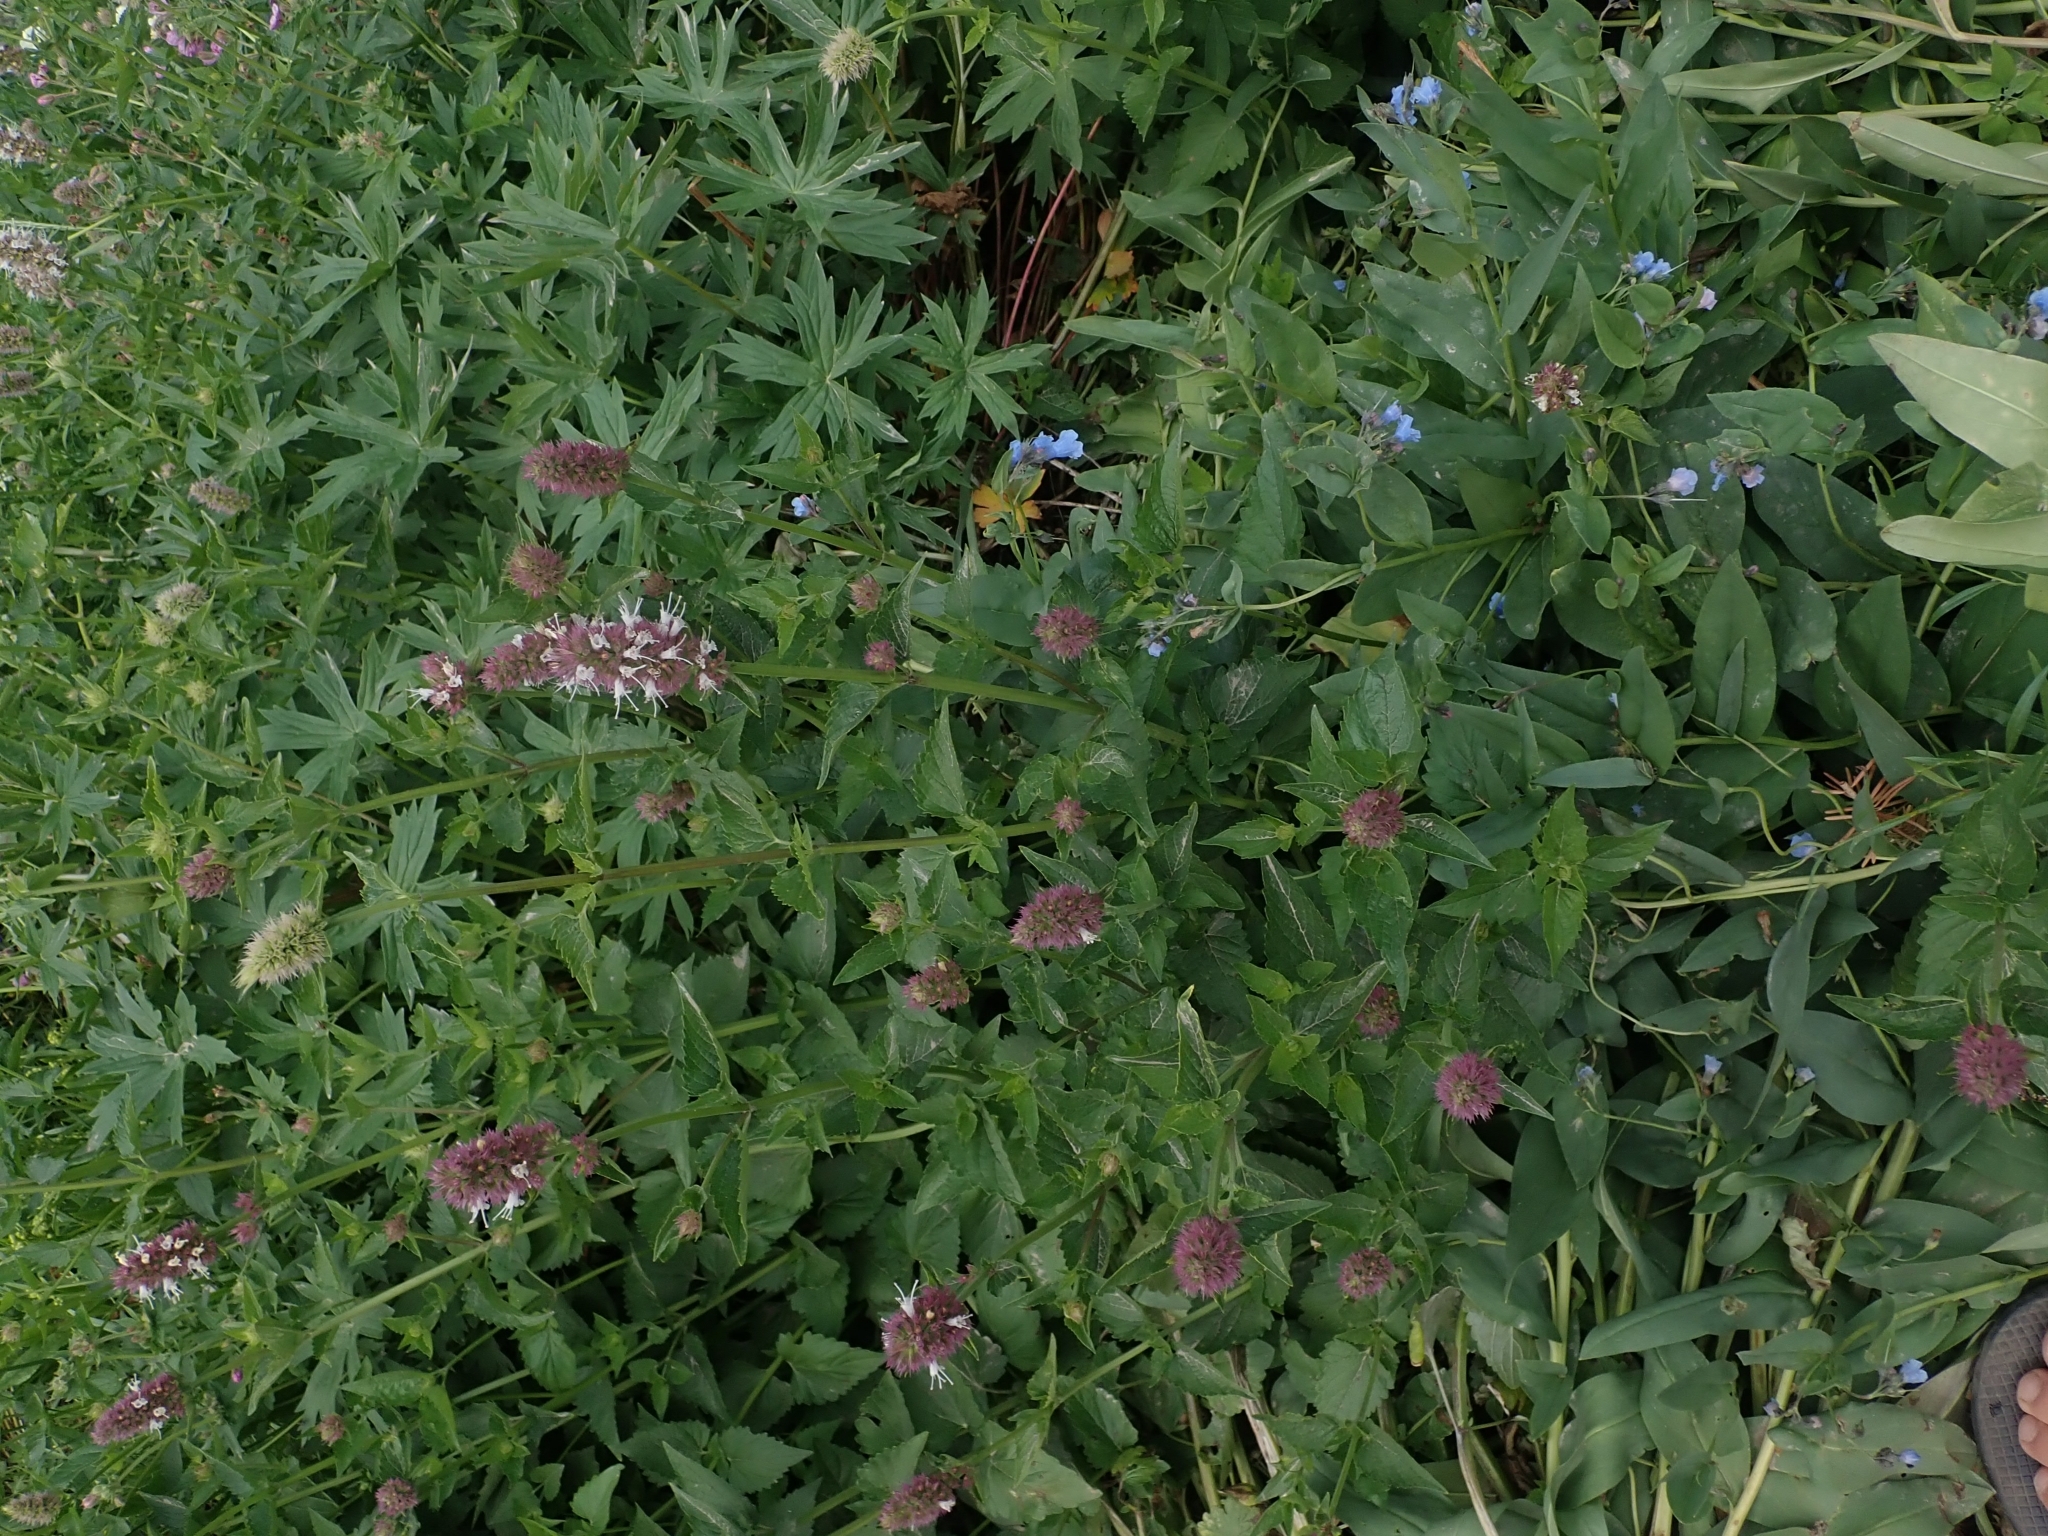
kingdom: Plantae
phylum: Tracheophyta
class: Magnoliopsida
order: Lamiales
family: Lamiaceae
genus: Agastache
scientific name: Agastache urticifolia
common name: Horsemint giant hyssop
